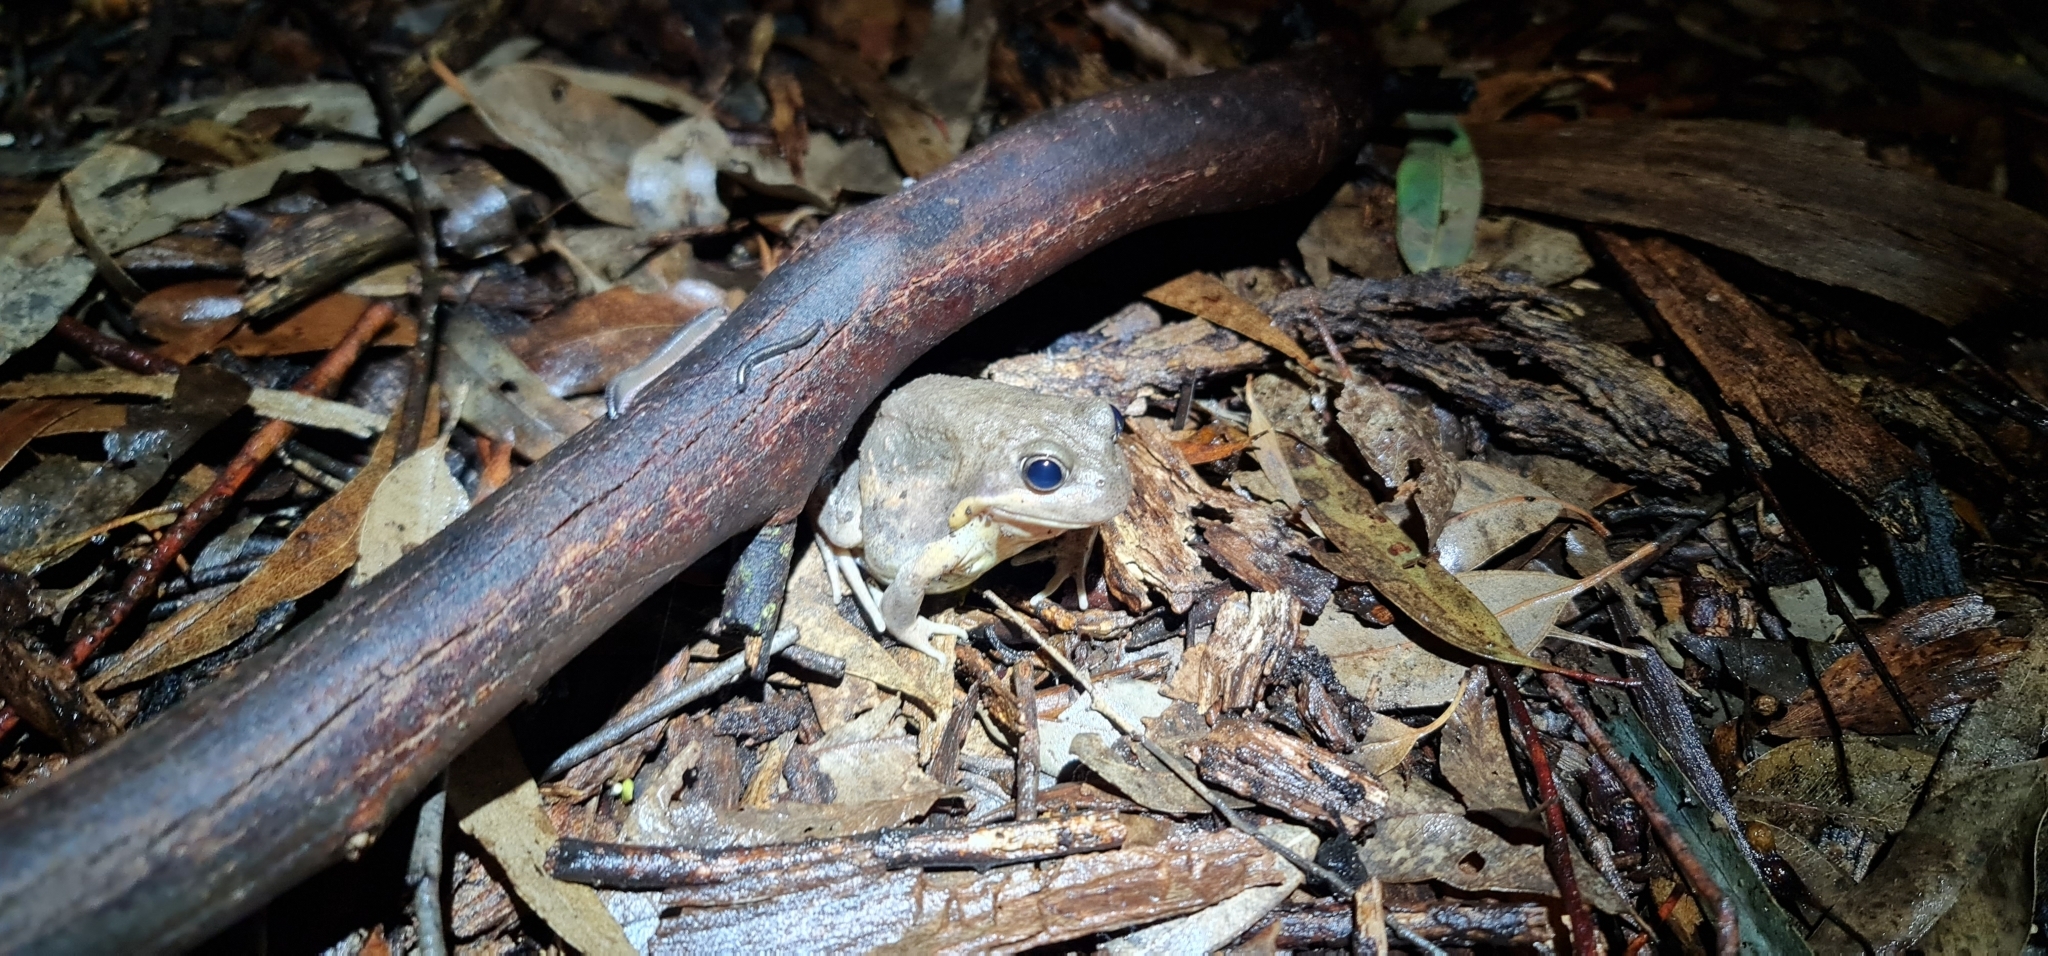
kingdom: Animalia
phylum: Chordata
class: Amphibia
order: Anura
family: Limnodynastidae
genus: Limnodynastes
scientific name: Limnodynastes dumerilii
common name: Banjo frog
